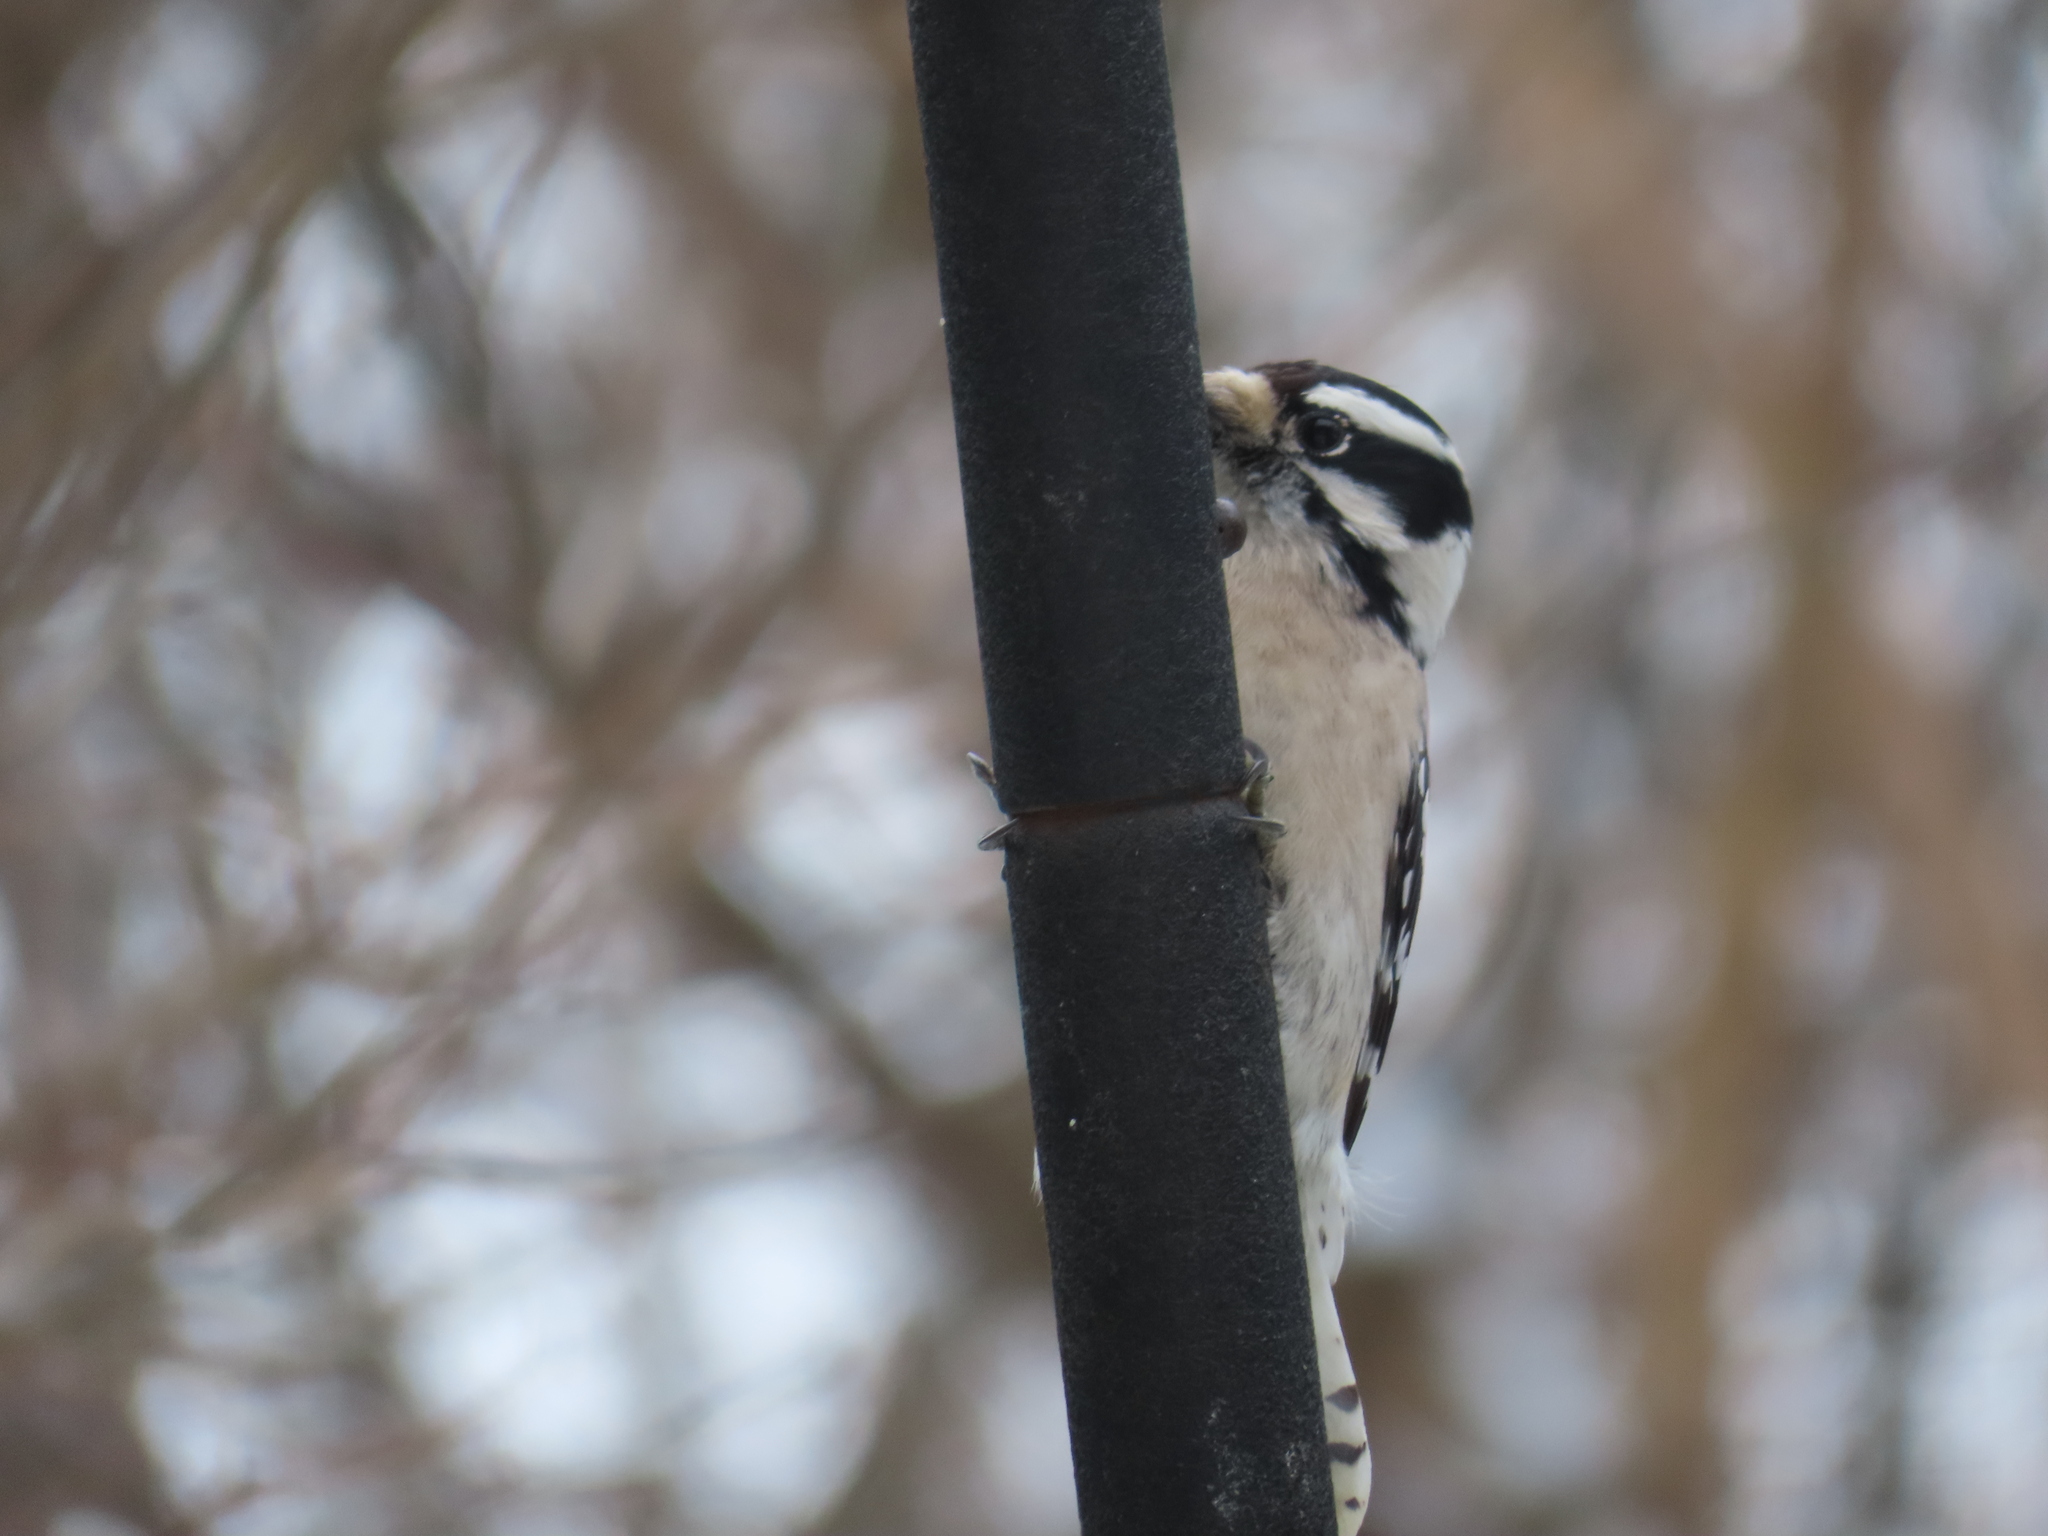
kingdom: Animalia
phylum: Chordata
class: Aves
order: Piciformes
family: Picidae
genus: Dryobates
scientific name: Dryobates pubescens
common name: Downy woodpecker
